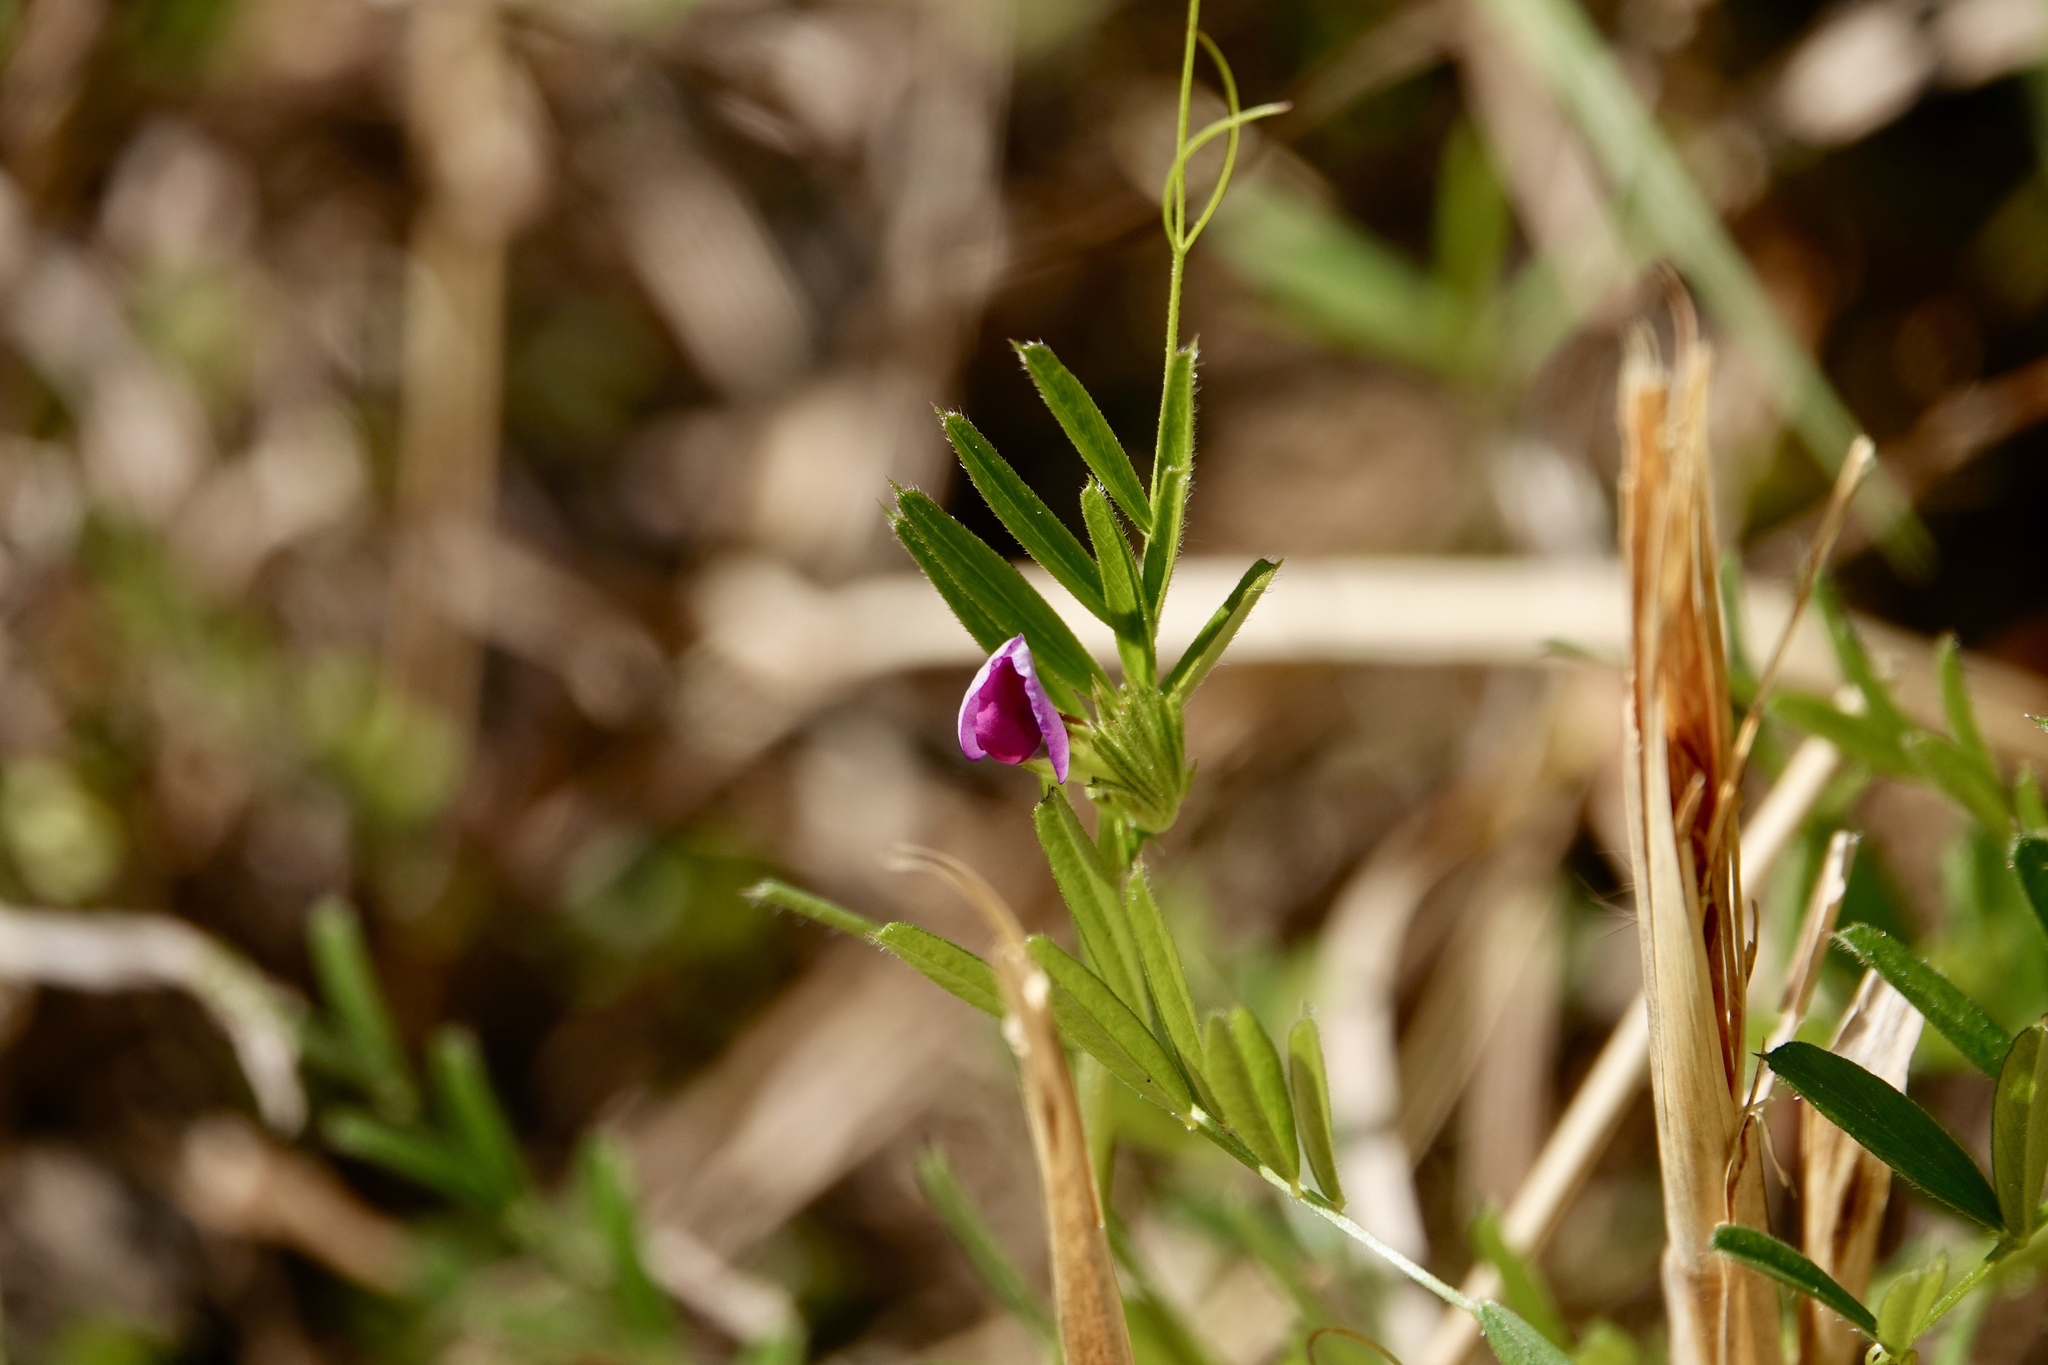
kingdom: Plantae
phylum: Tracheophyta
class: Magnoliopsida
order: Fabales
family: Fabaceae
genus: Vicia
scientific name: Vicia sativa
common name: Garden vetch
